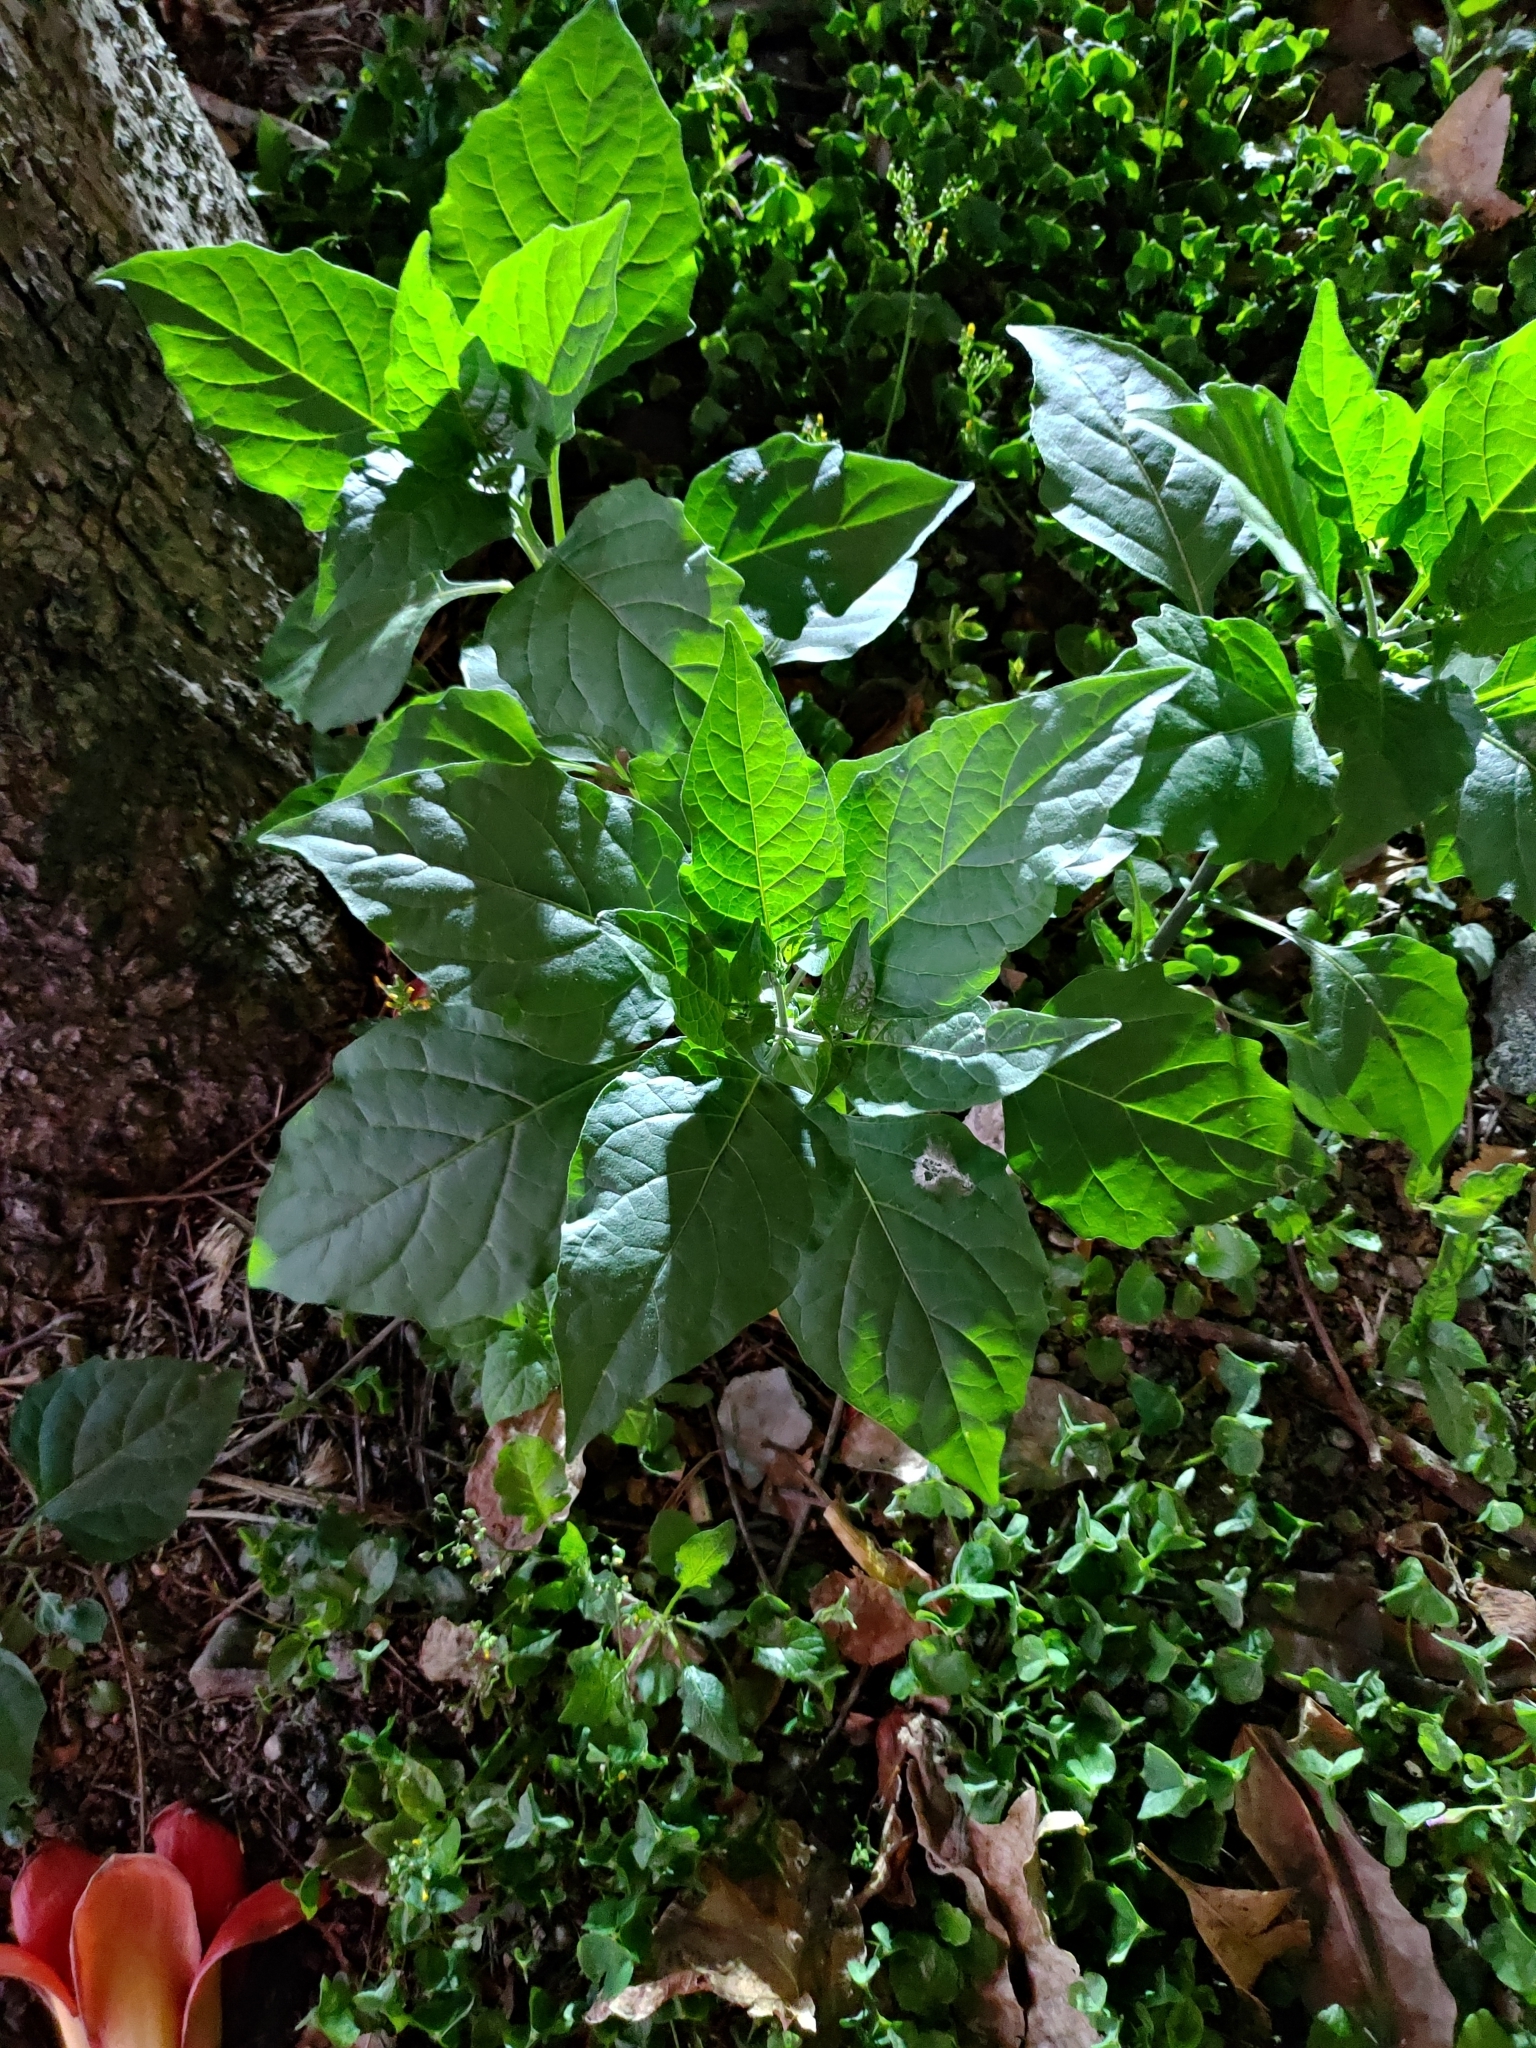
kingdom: Plantae
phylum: Tracheophyta
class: Magnoliopsida
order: Solanales
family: Solanaceae
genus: Solanum
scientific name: Solanum
